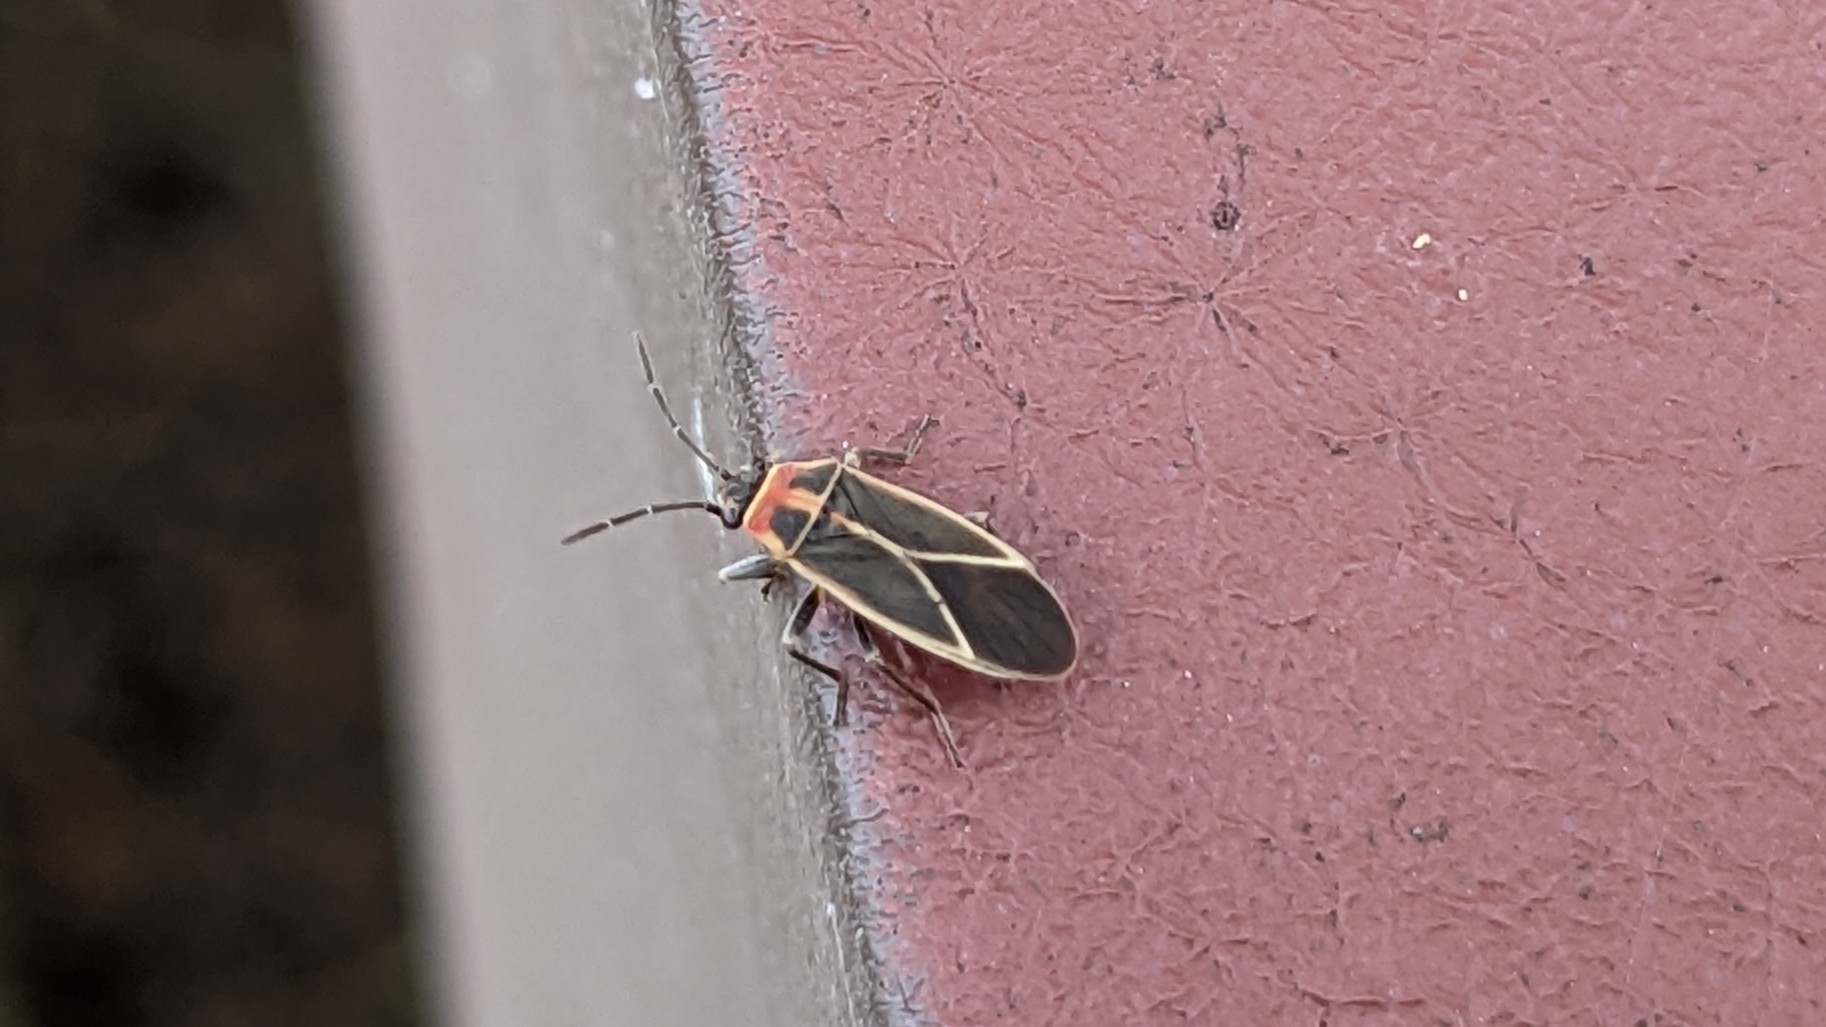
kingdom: Animalia
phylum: Arthropoda
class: Insecta
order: Hemiptera
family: Lygaeidae
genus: Ochrimnus
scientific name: Ochrimnus mimulus
